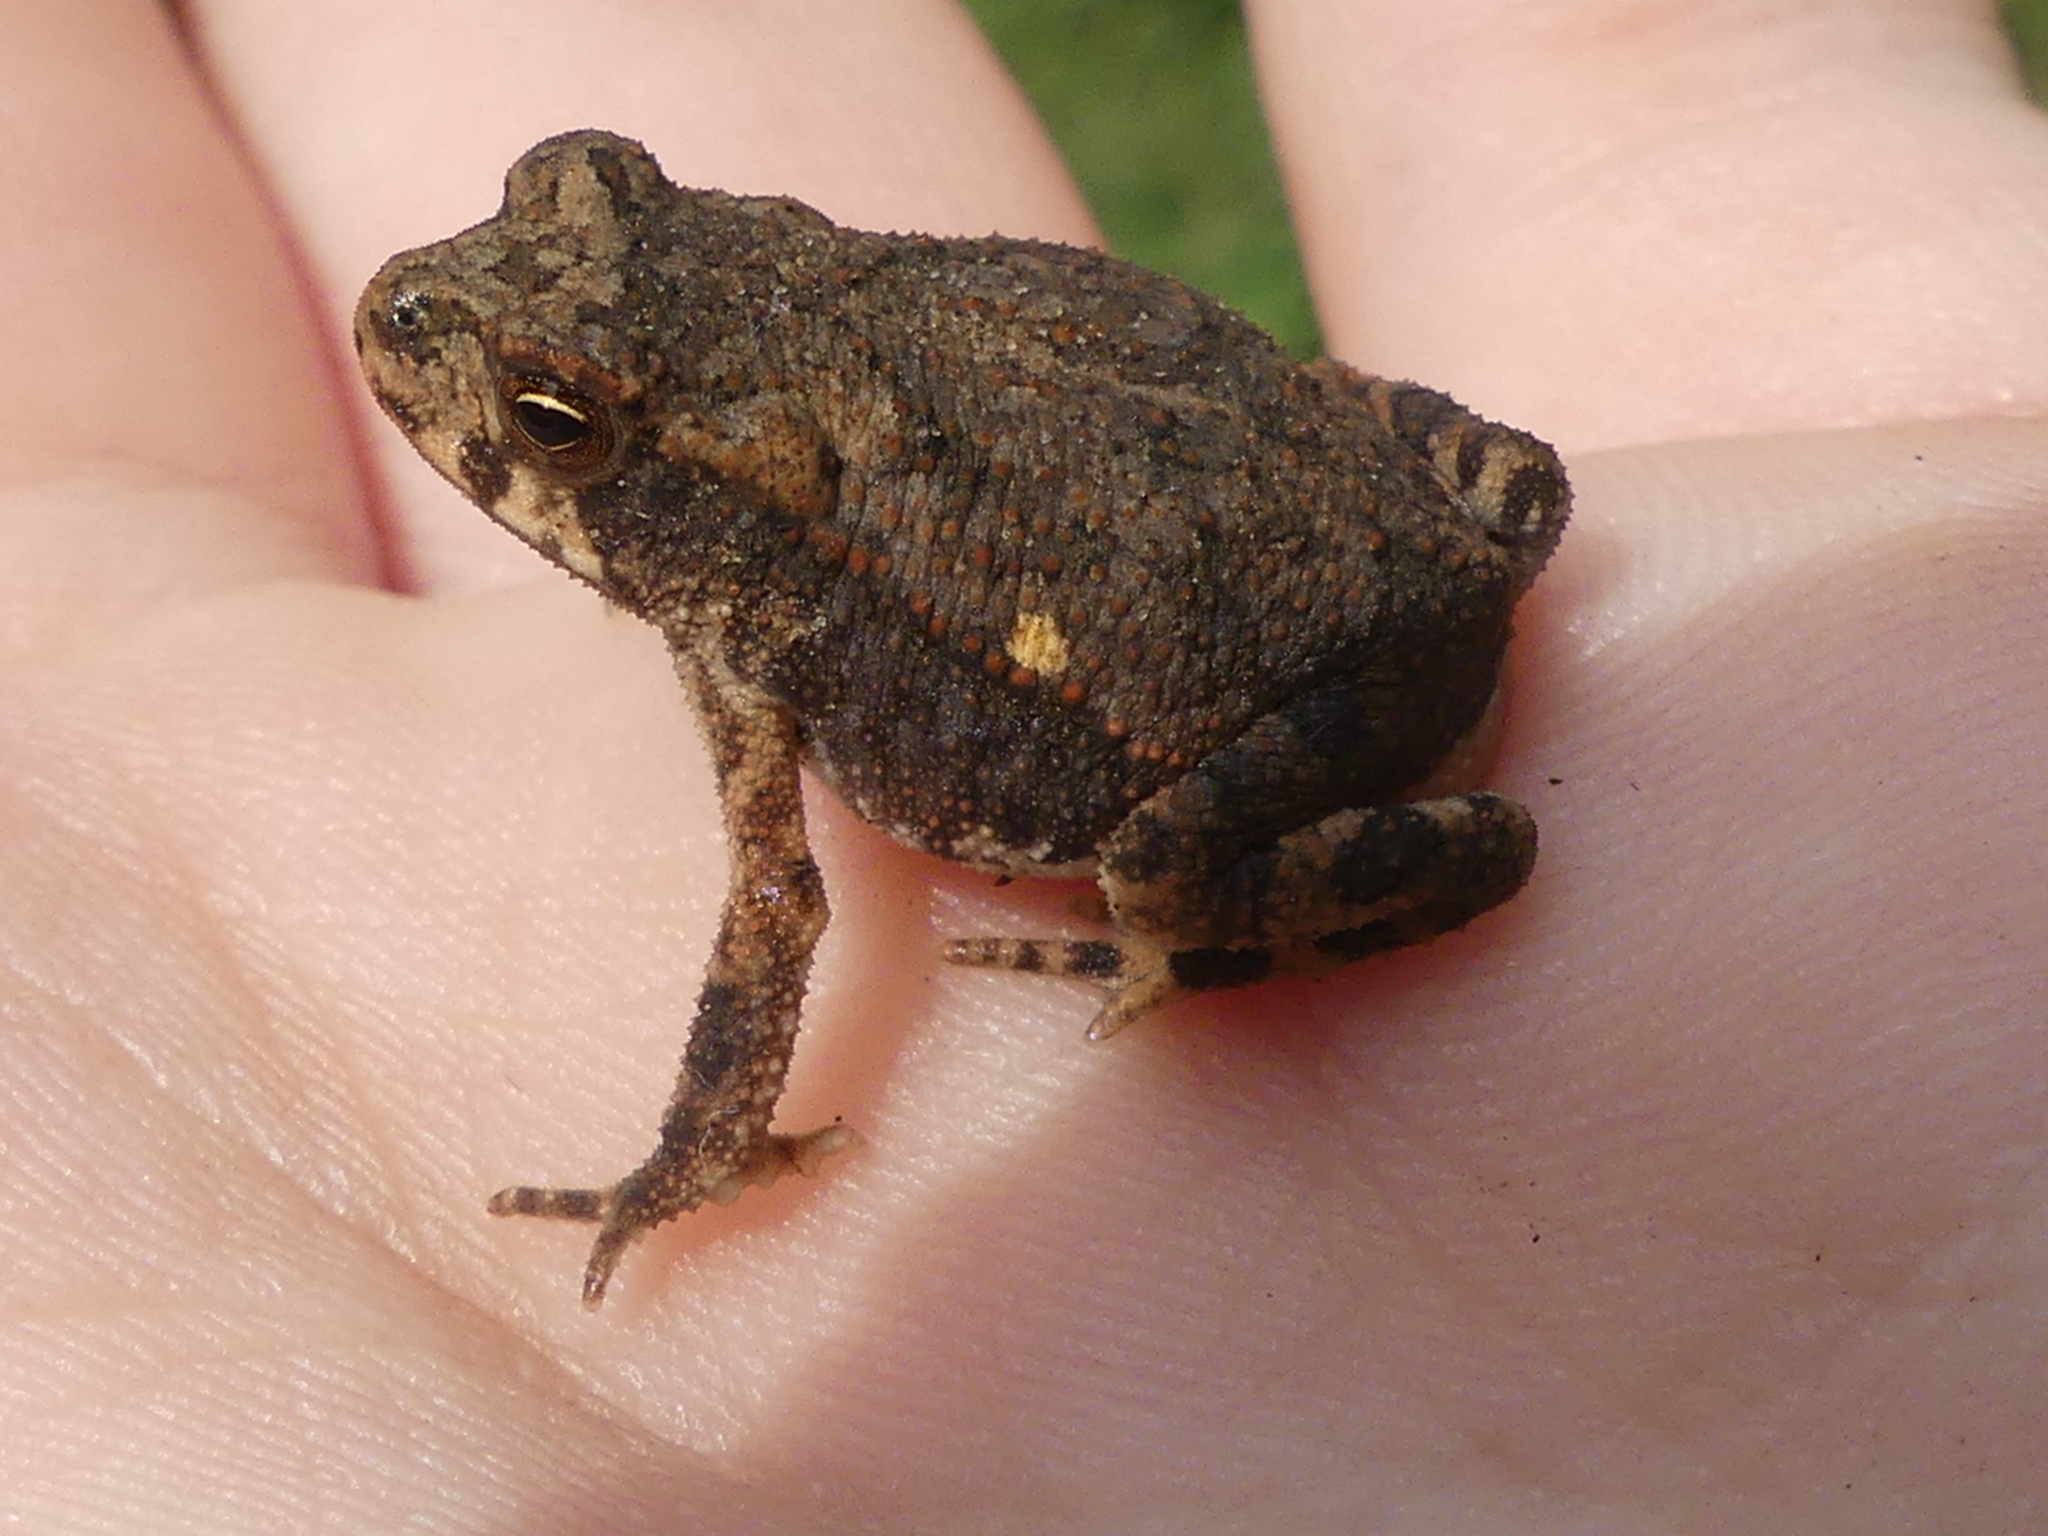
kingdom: Animalia
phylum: Chordata
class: Amphibia
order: Anura
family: Bufonidae
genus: Incilius
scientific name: Incilius nebulifer
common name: Gulf coast toad
